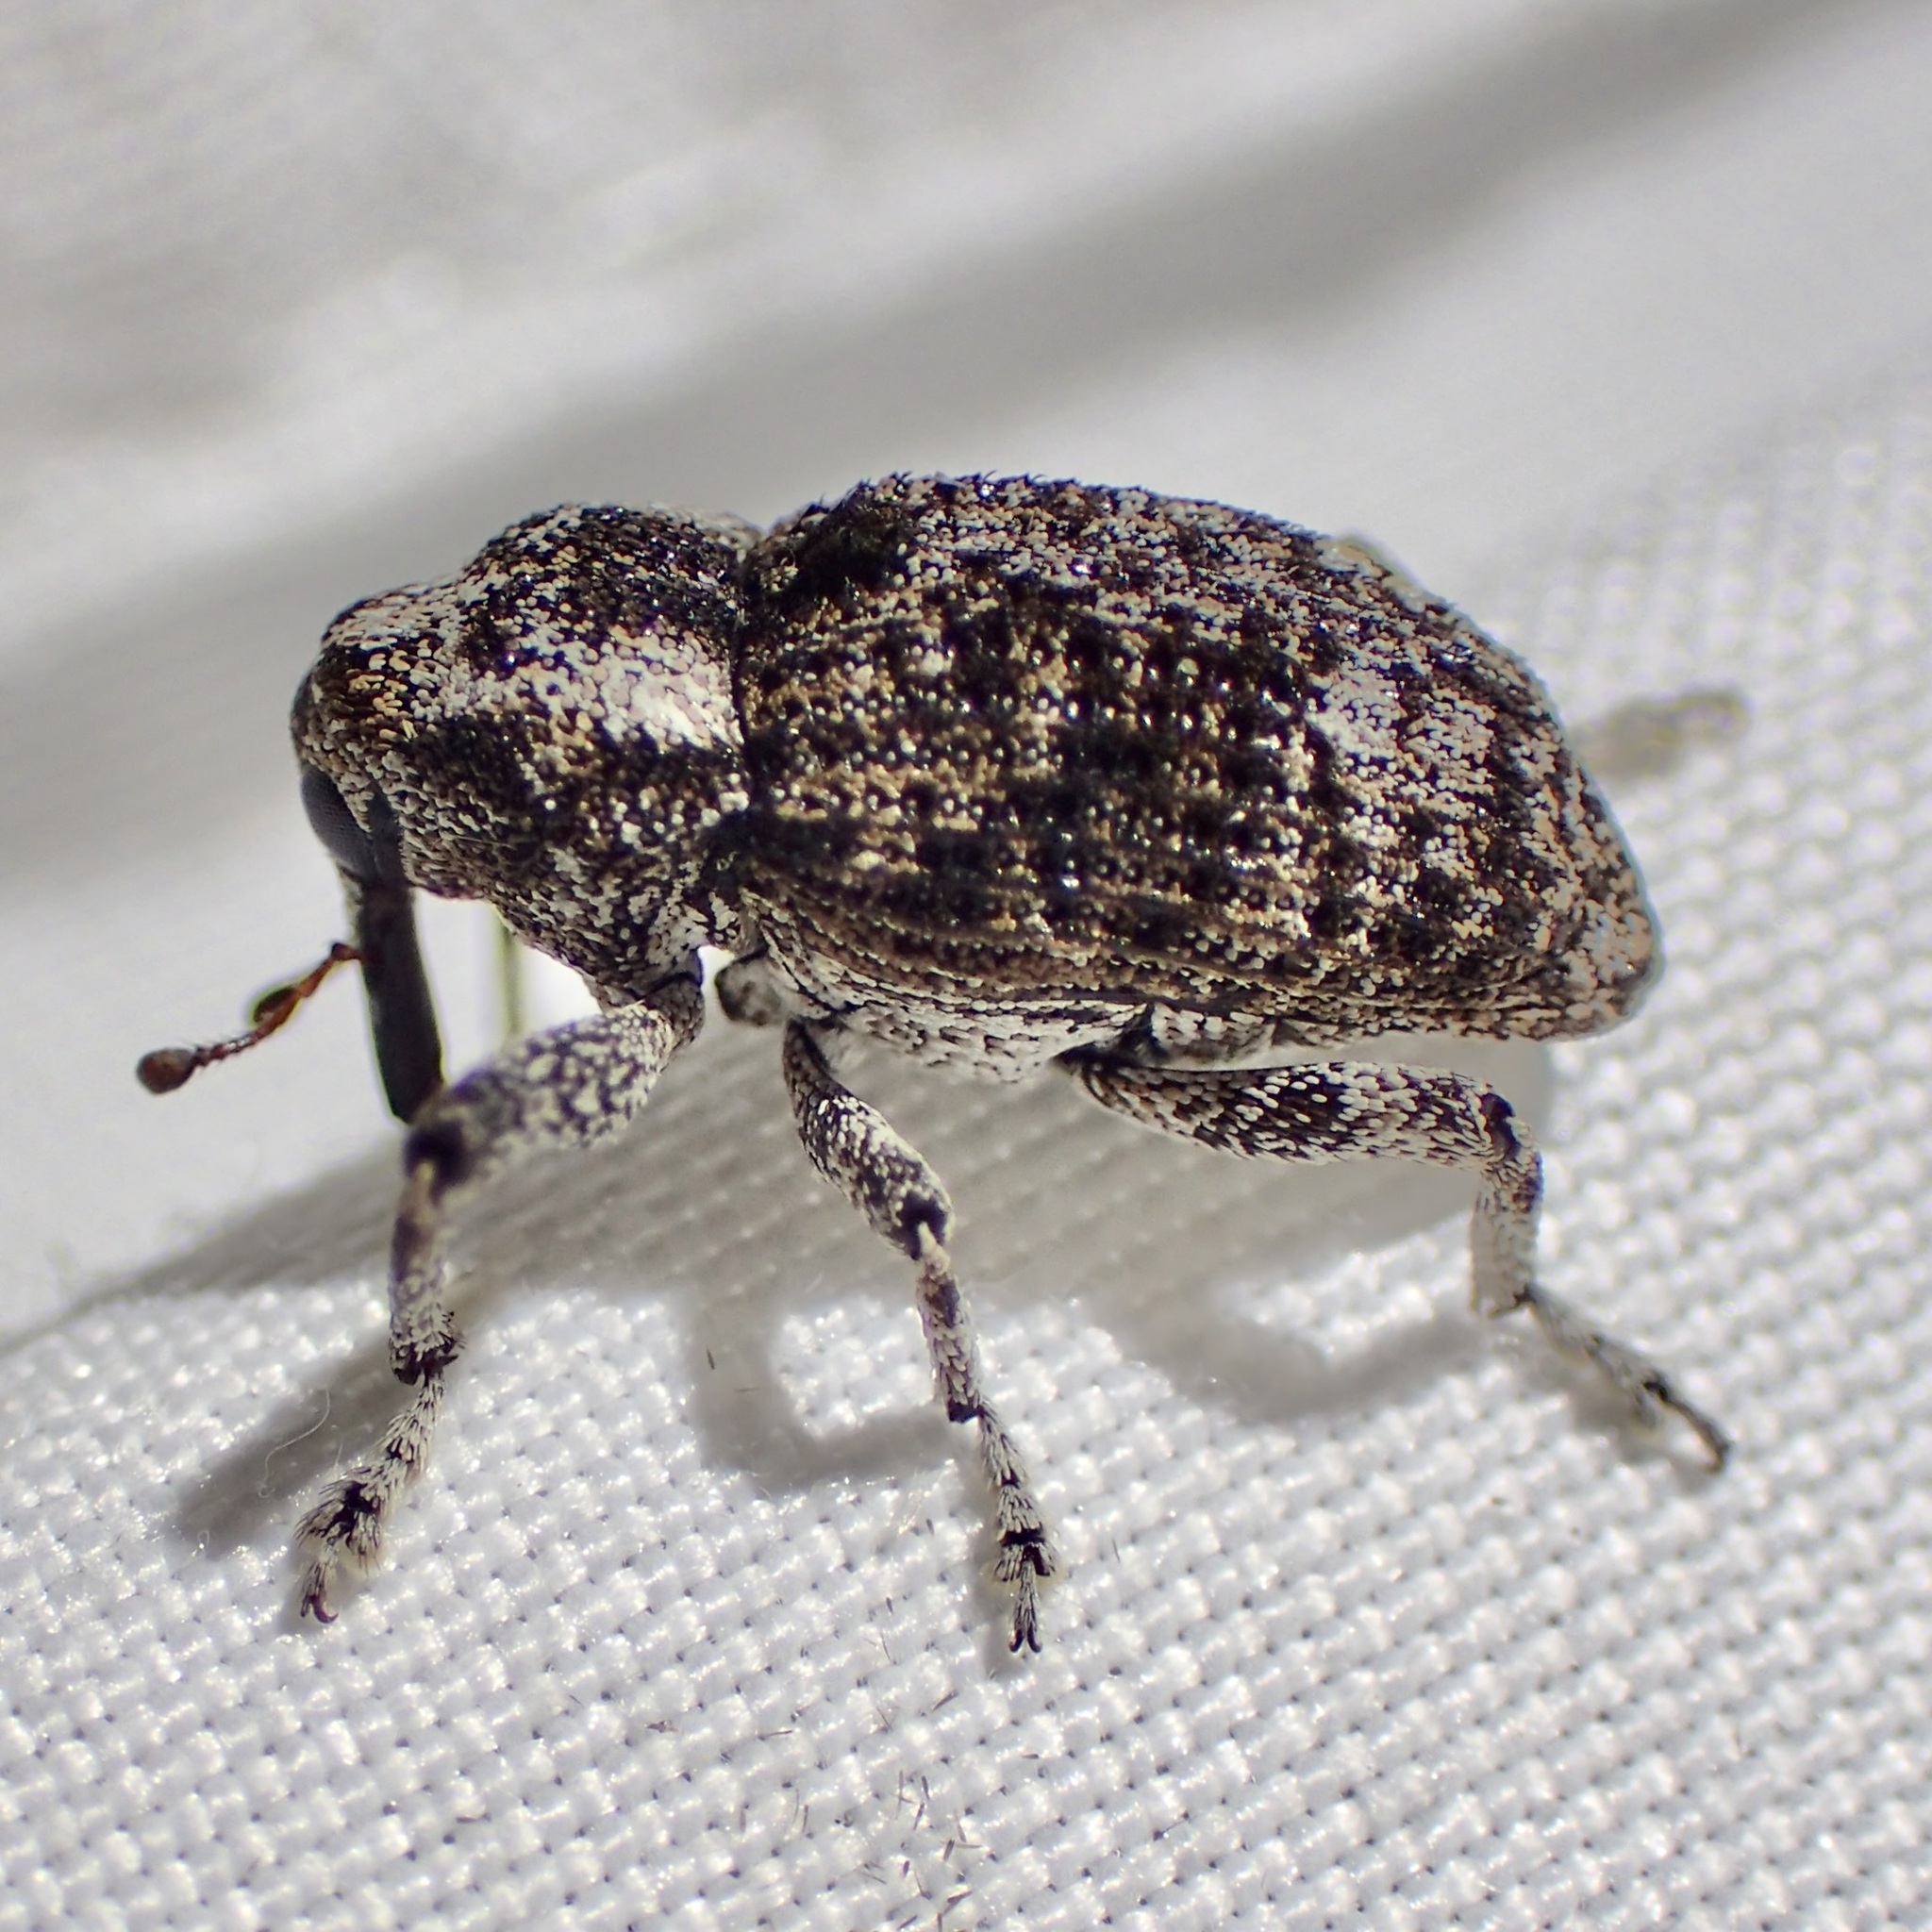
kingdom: Animalia
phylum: Arthropoda
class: Insecta
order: Coleoptera
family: Curculionidae
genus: Episcirrus
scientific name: Episcirrus brachialis
